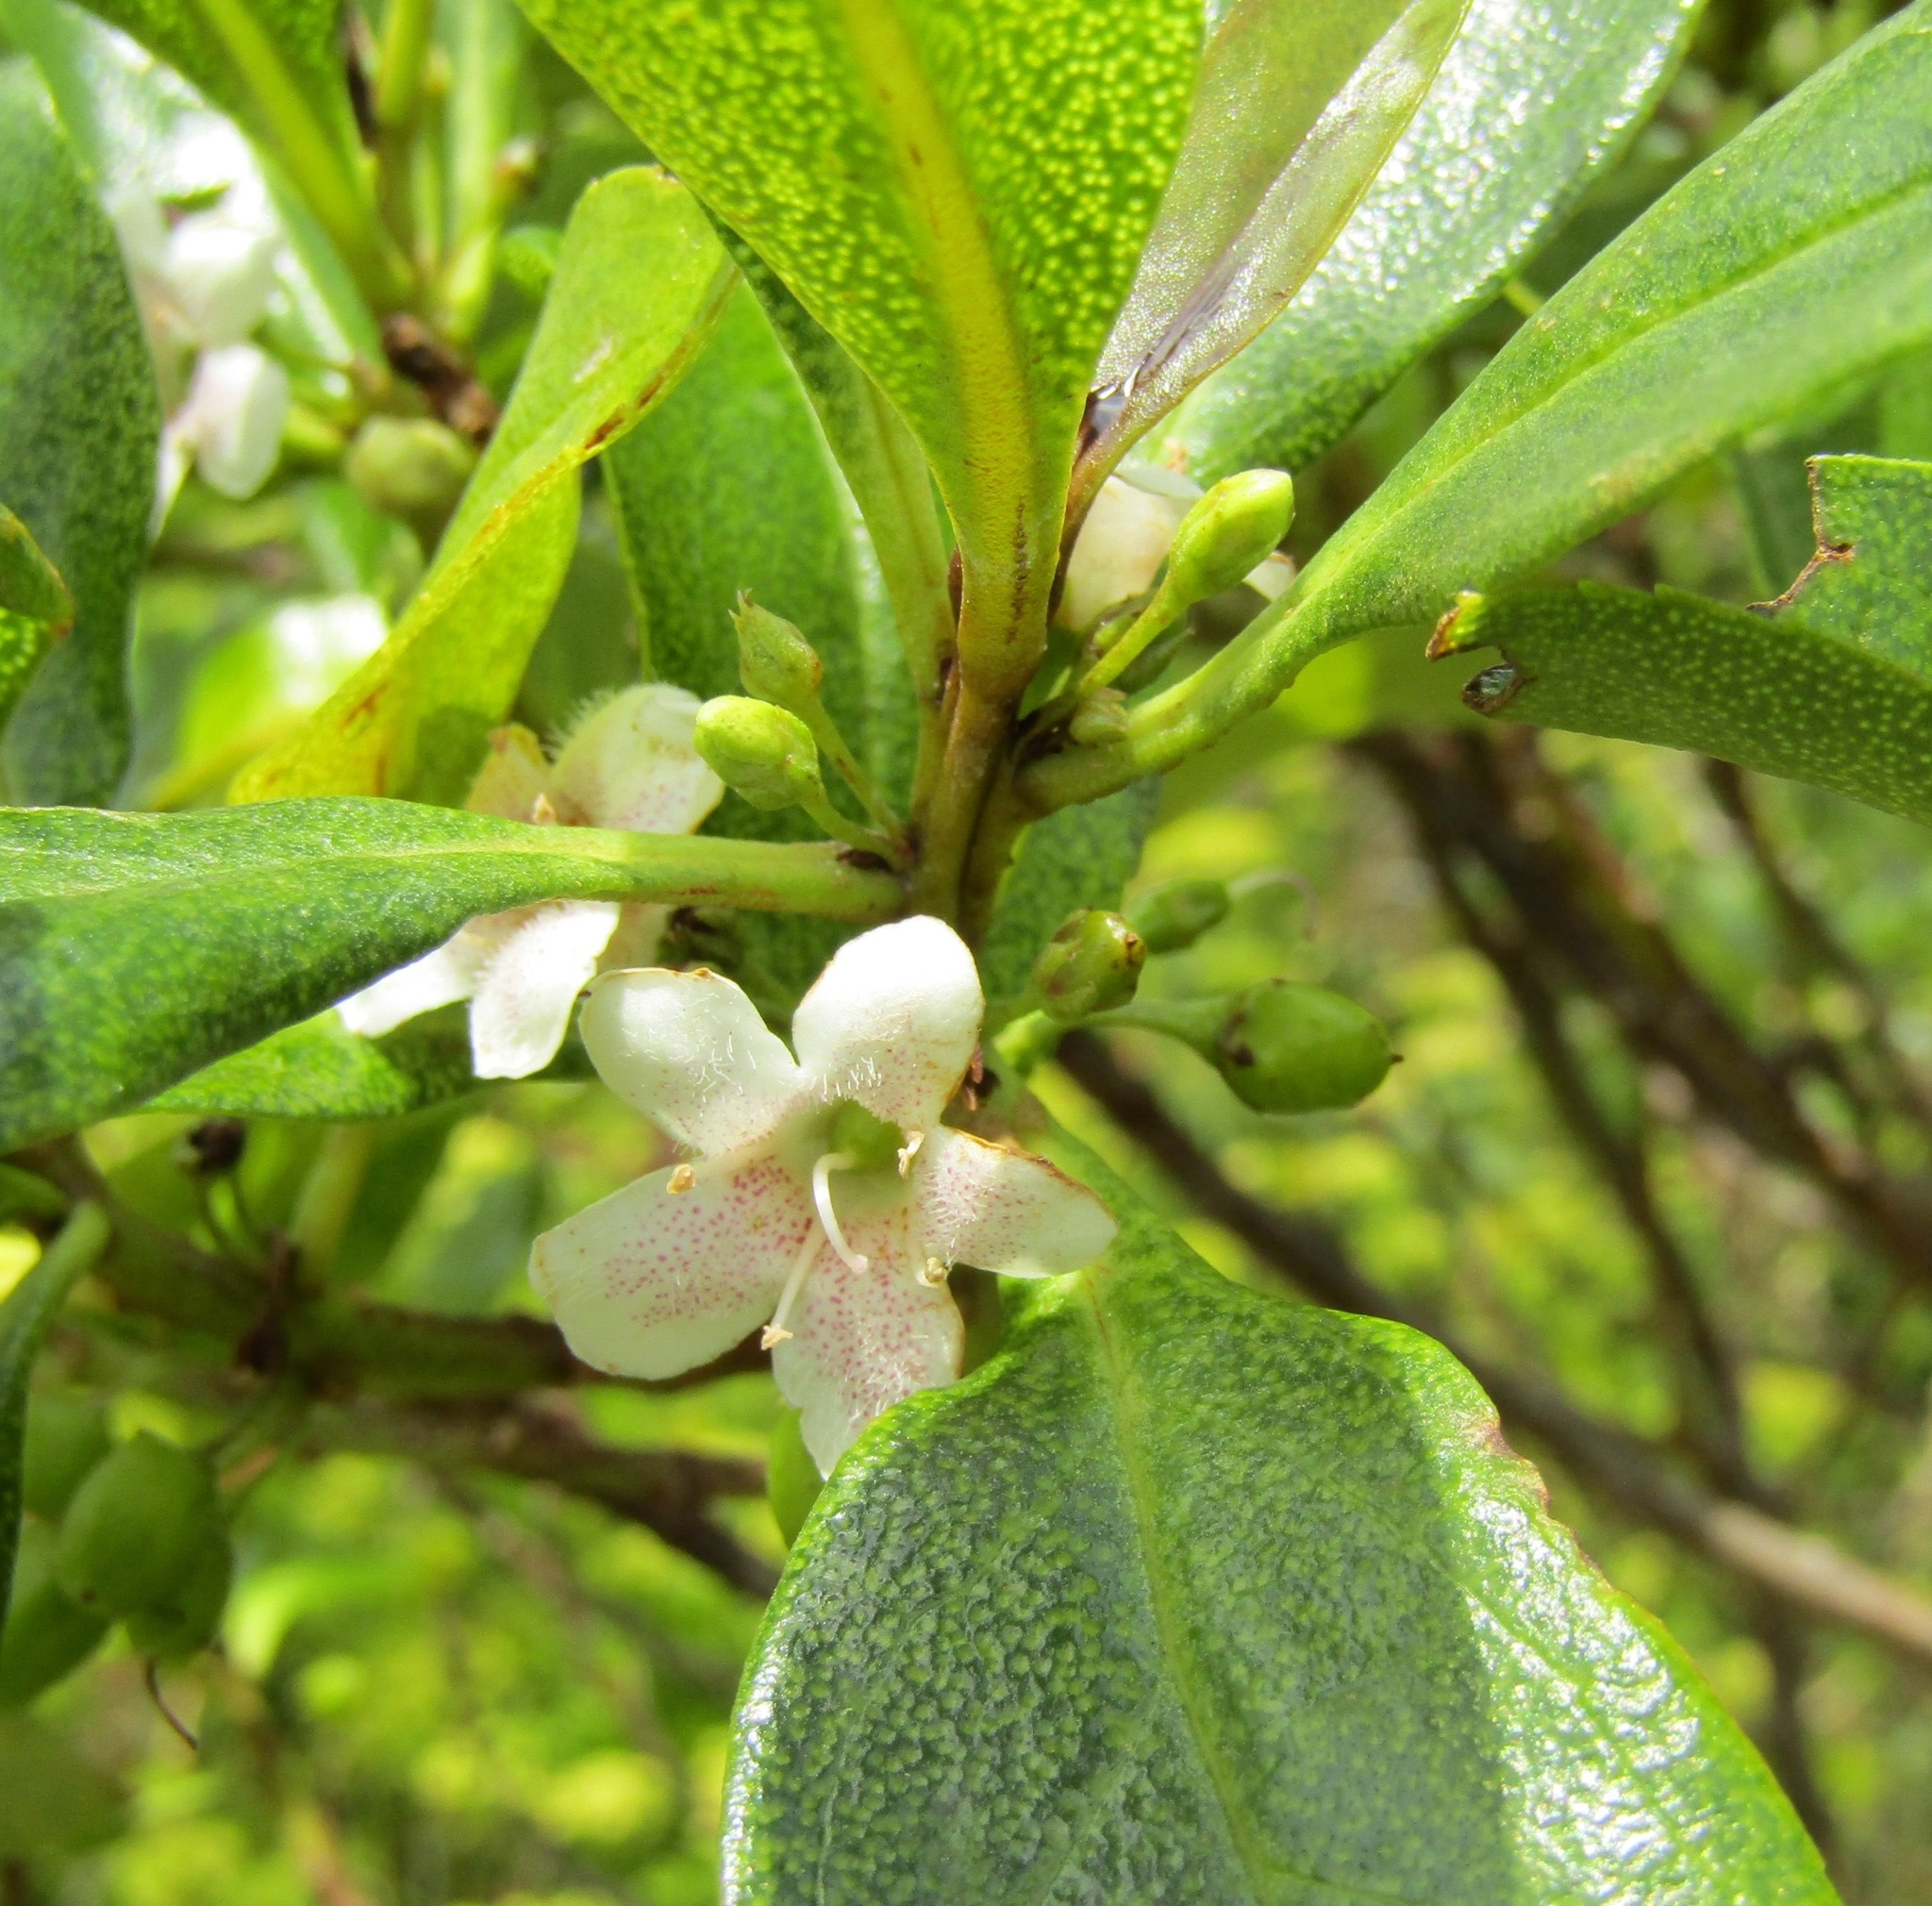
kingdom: Plantae
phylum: Tracheophyta
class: Magnoliopsida
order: Lamiales
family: Scrophulariaceae
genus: Myoporum
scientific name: Myoporum laetum
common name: Ngaio tree
